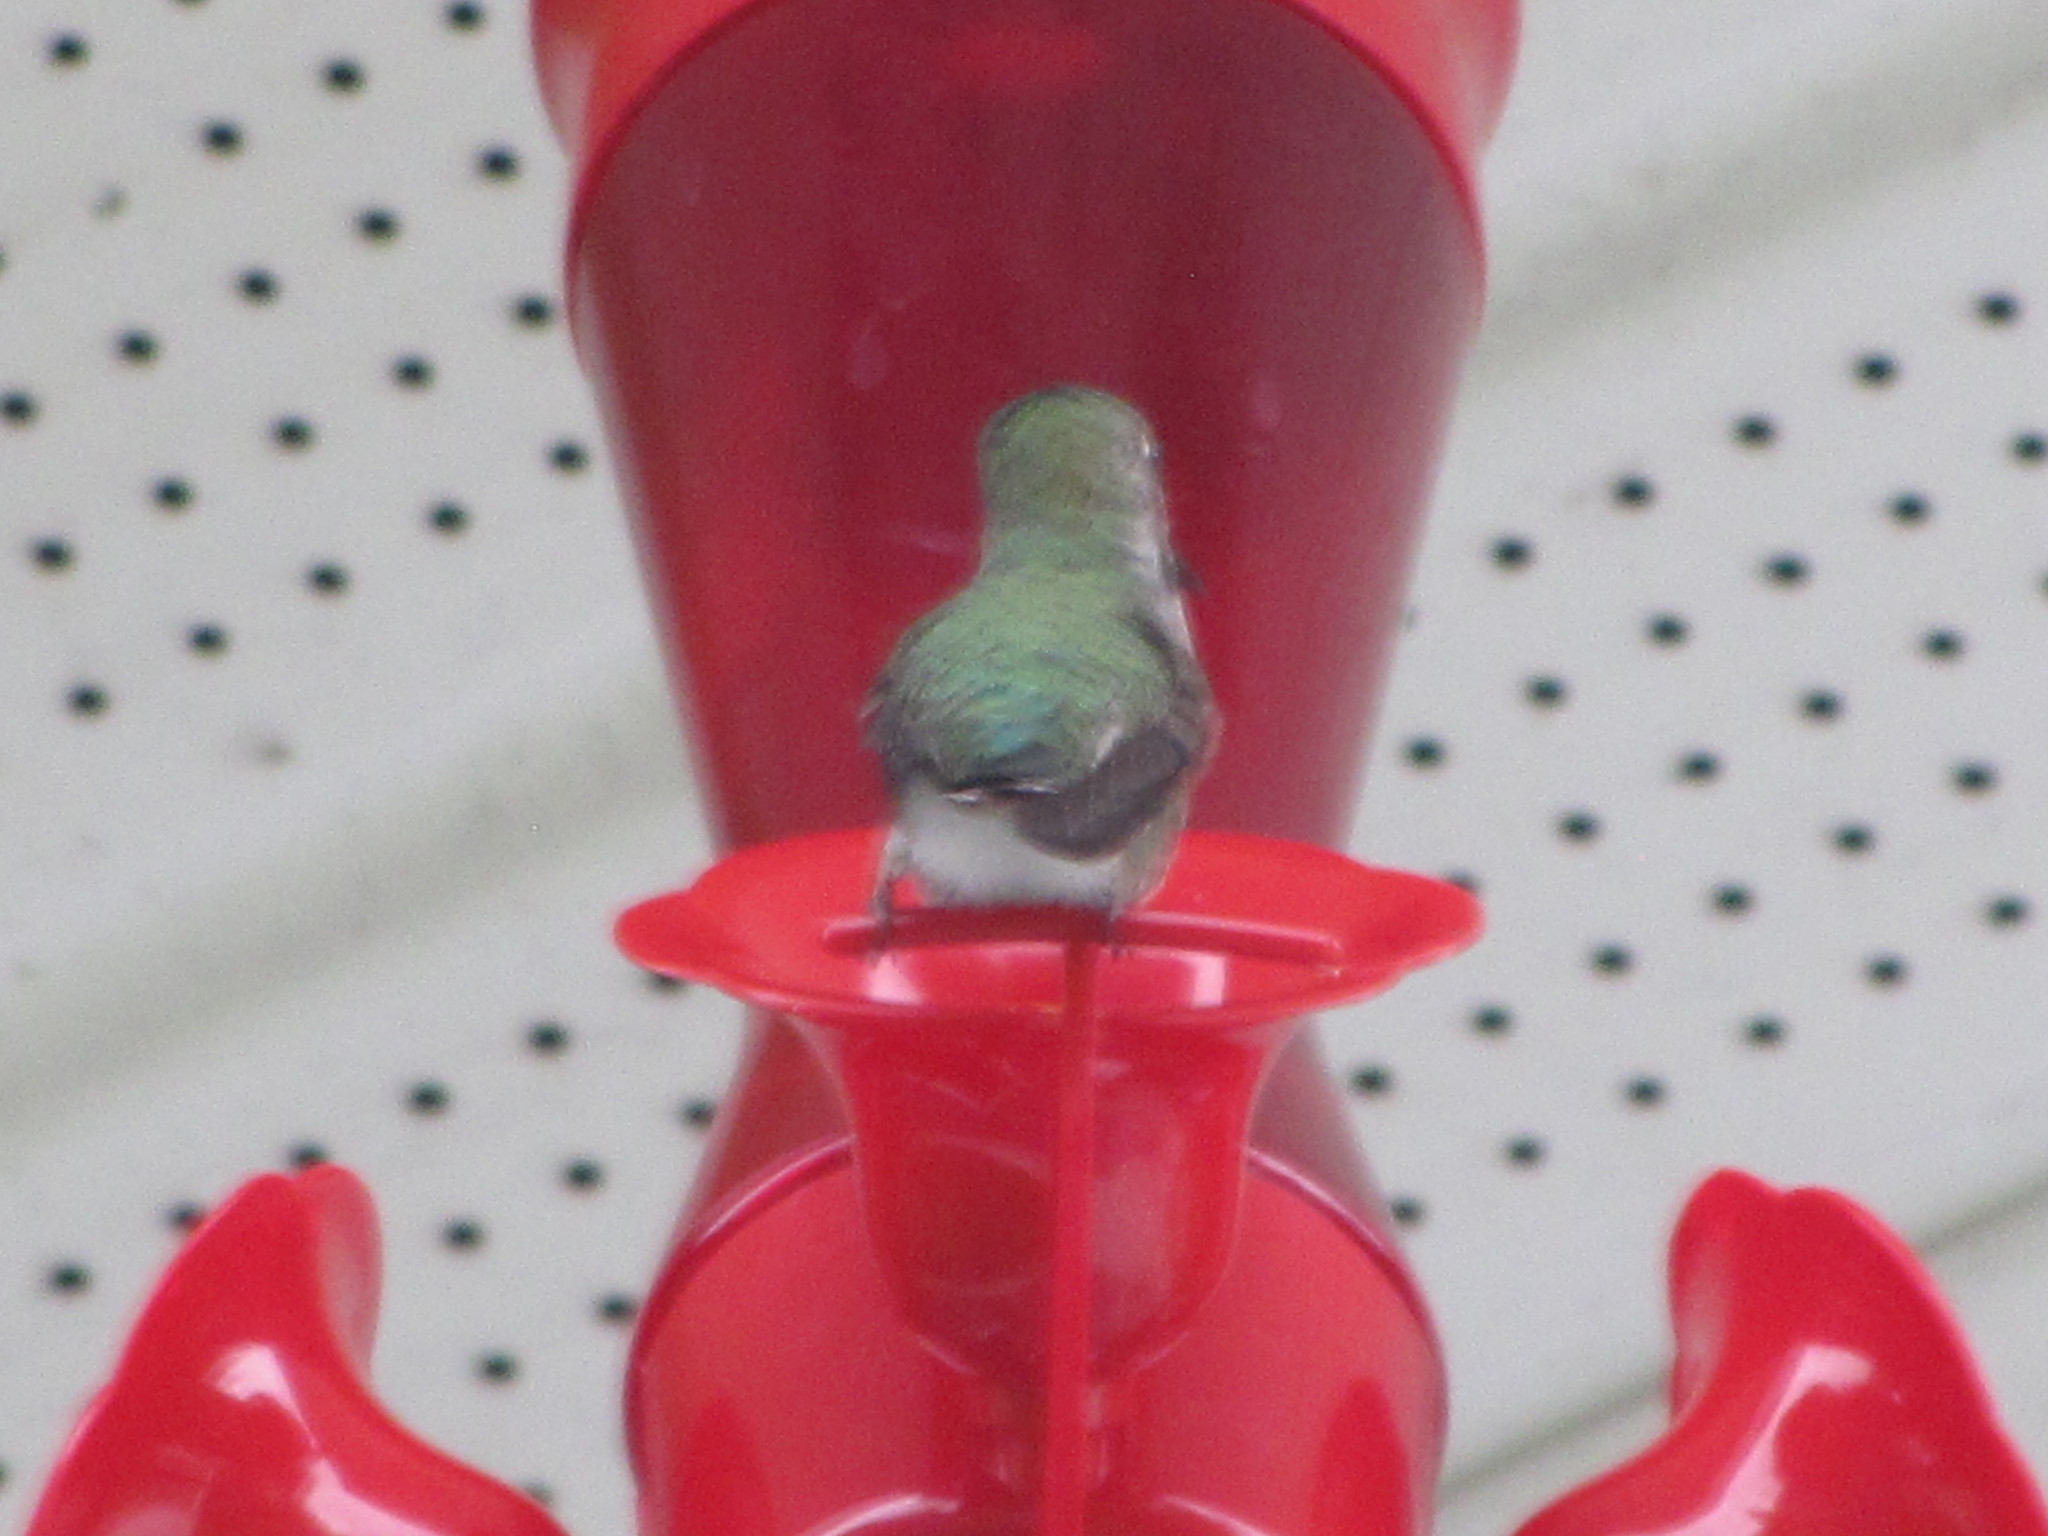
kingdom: Animalia
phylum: Chordata
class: Aves
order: Apodiformes
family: Trochilidae
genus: Calypte
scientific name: Calypte anna
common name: Anna's hummingbird
